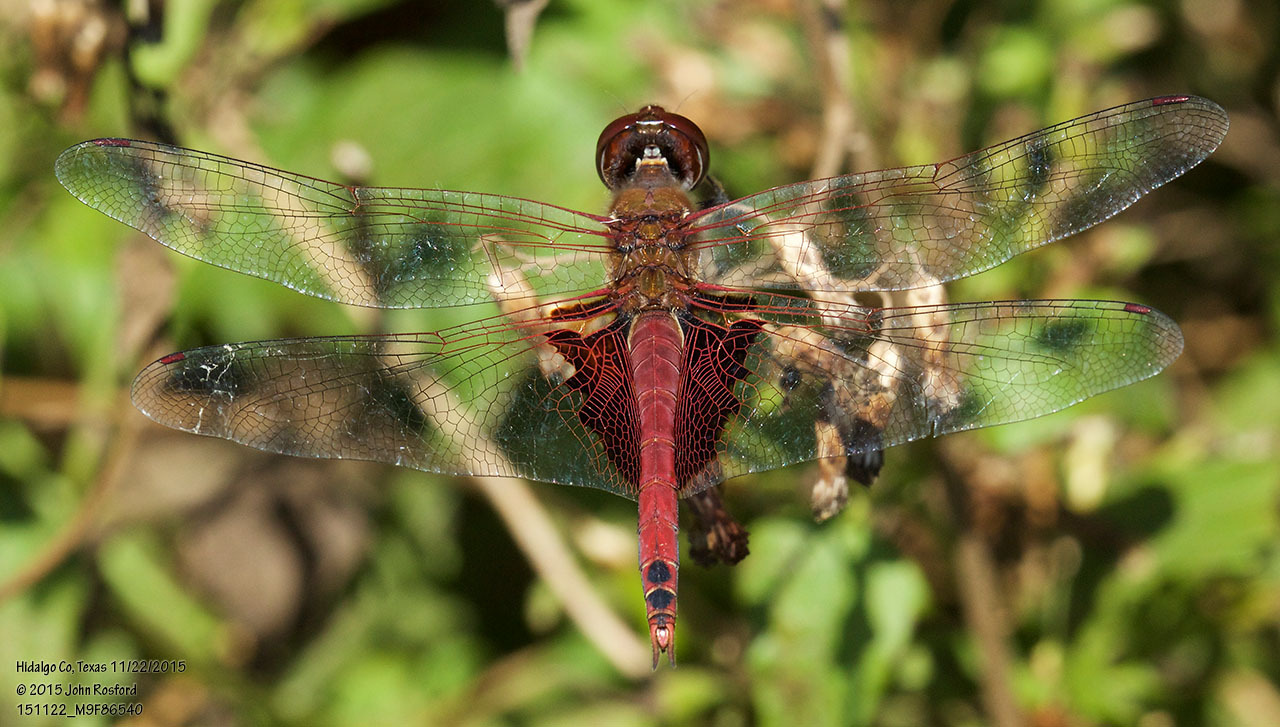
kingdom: Animalia
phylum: Arthropoda
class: Insecta
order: Odonata
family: Libellulidae
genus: Tramea
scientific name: Tramea onusta
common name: Red saddlebags
